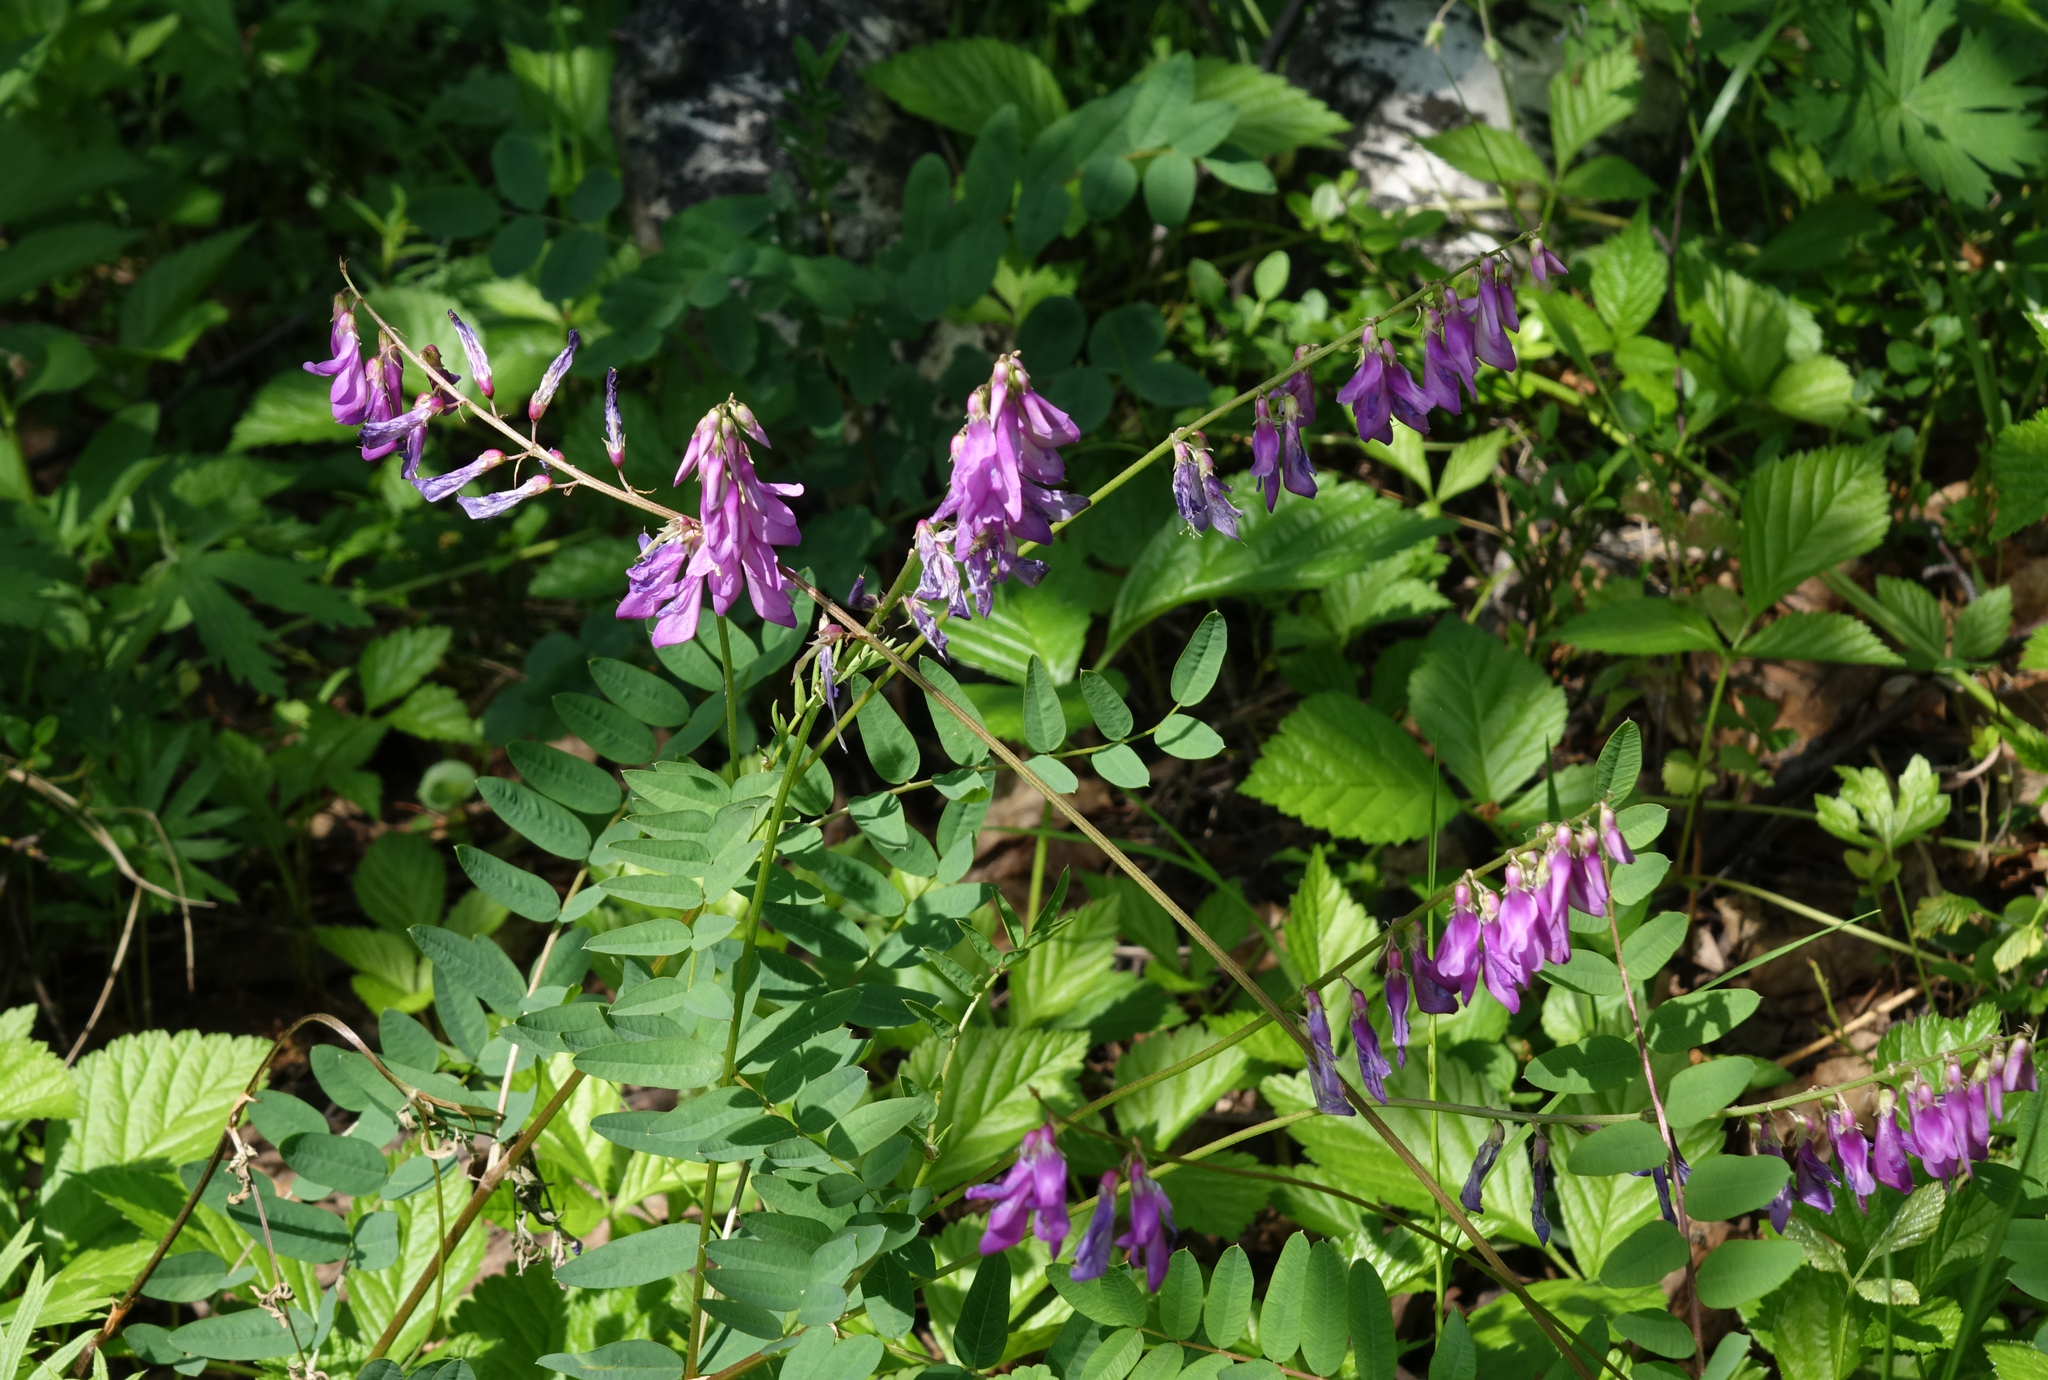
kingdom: Plantae
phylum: Tracheophyta
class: Magnoliopsida
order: Fabales
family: Fabaceae
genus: Hedysarum
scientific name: Hedysarum branthii
